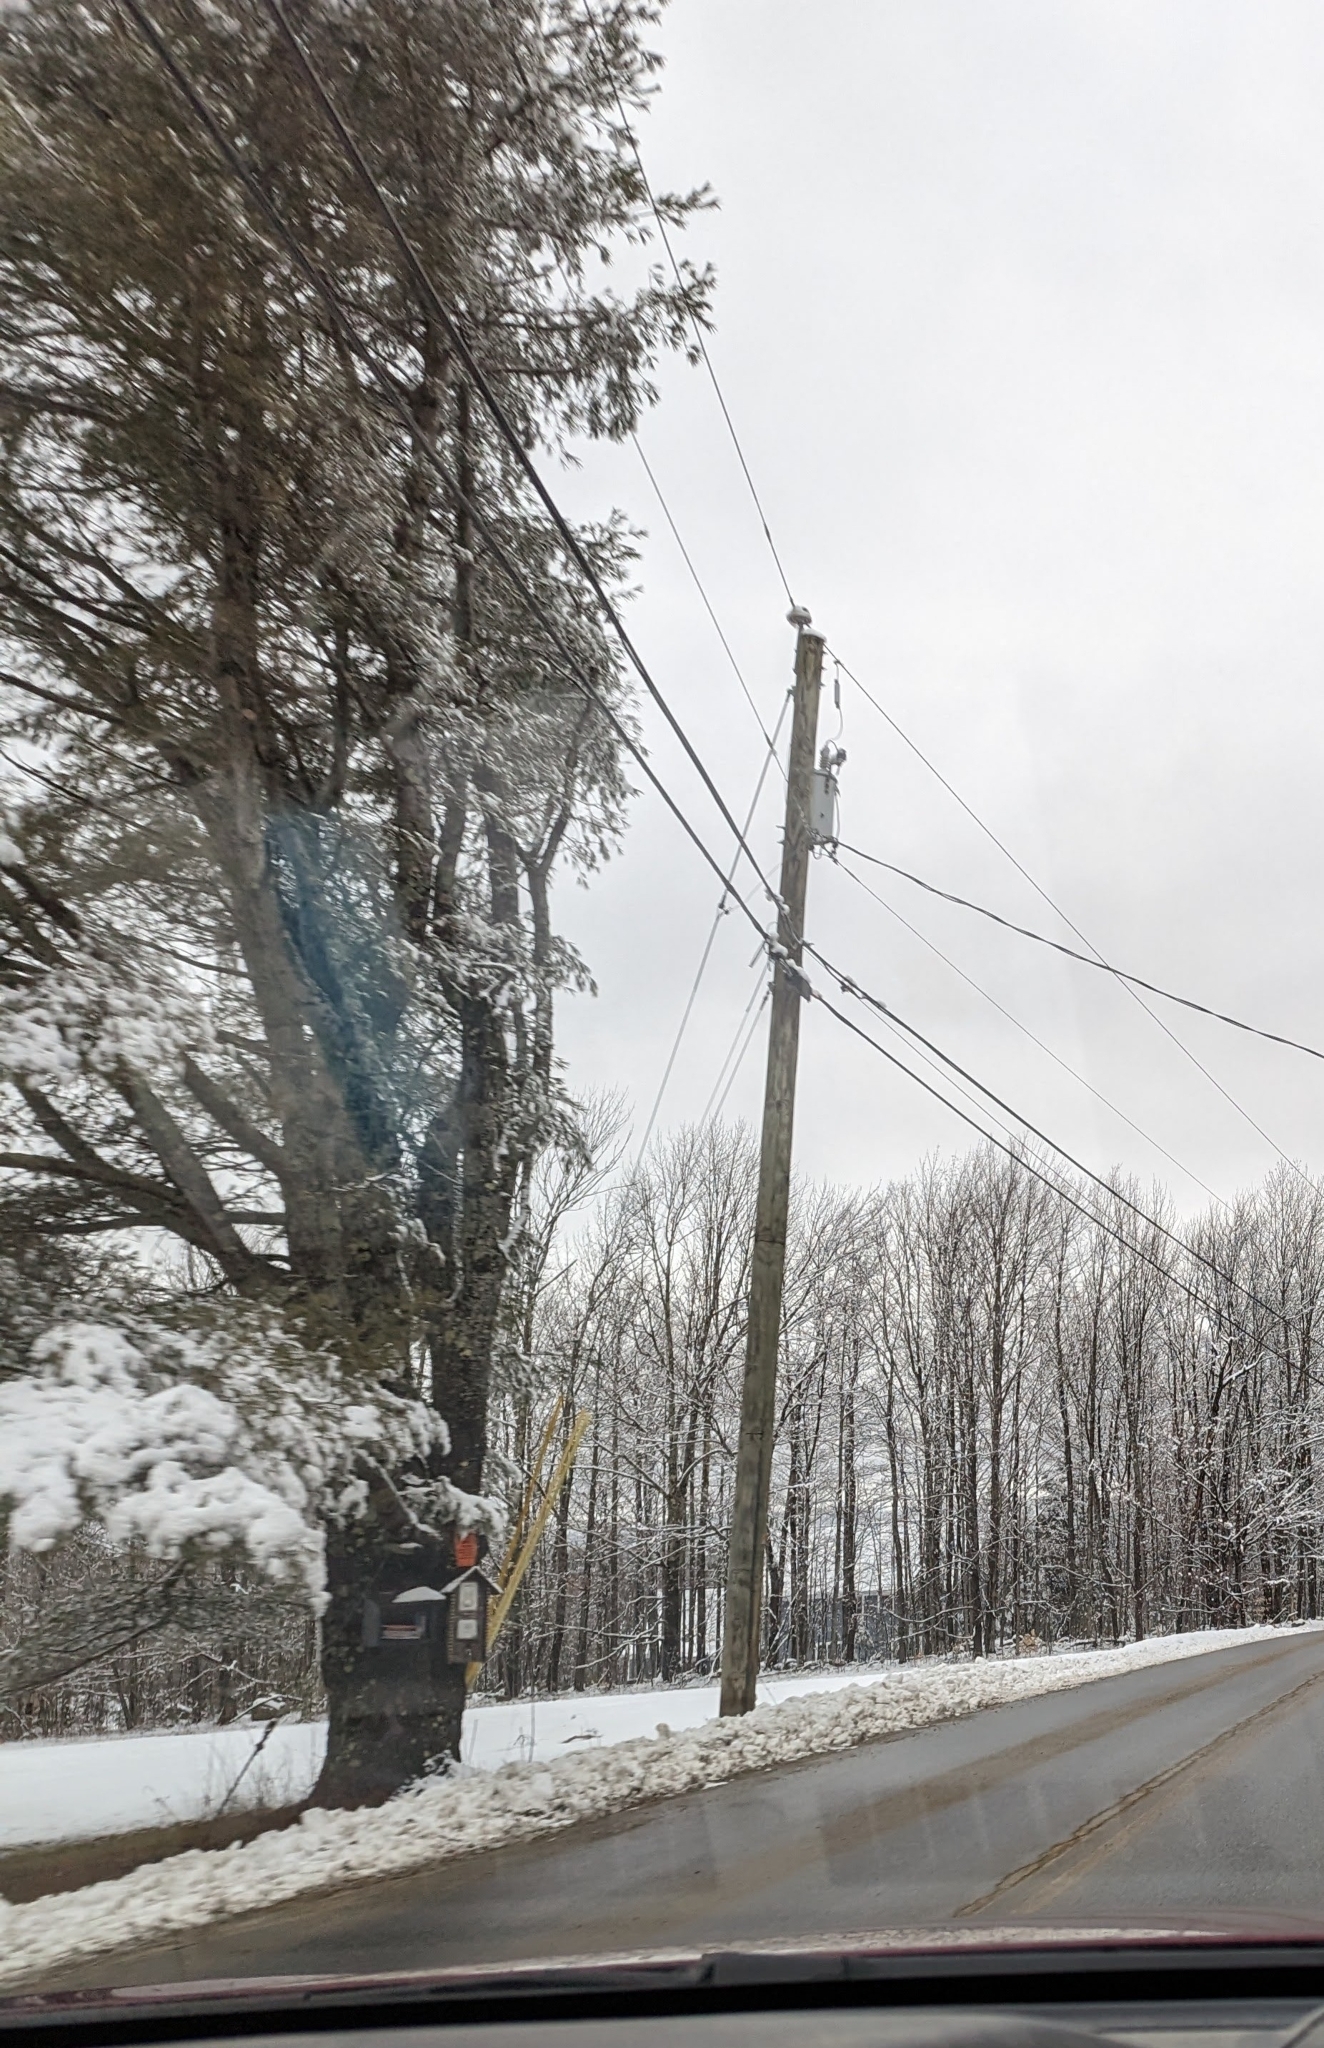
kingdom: Plantae
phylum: Tracheophyta
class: Pinopsida
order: Pinales
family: Pinaceae
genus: Pinus
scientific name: Pinus strobus
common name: Weymouth pine
